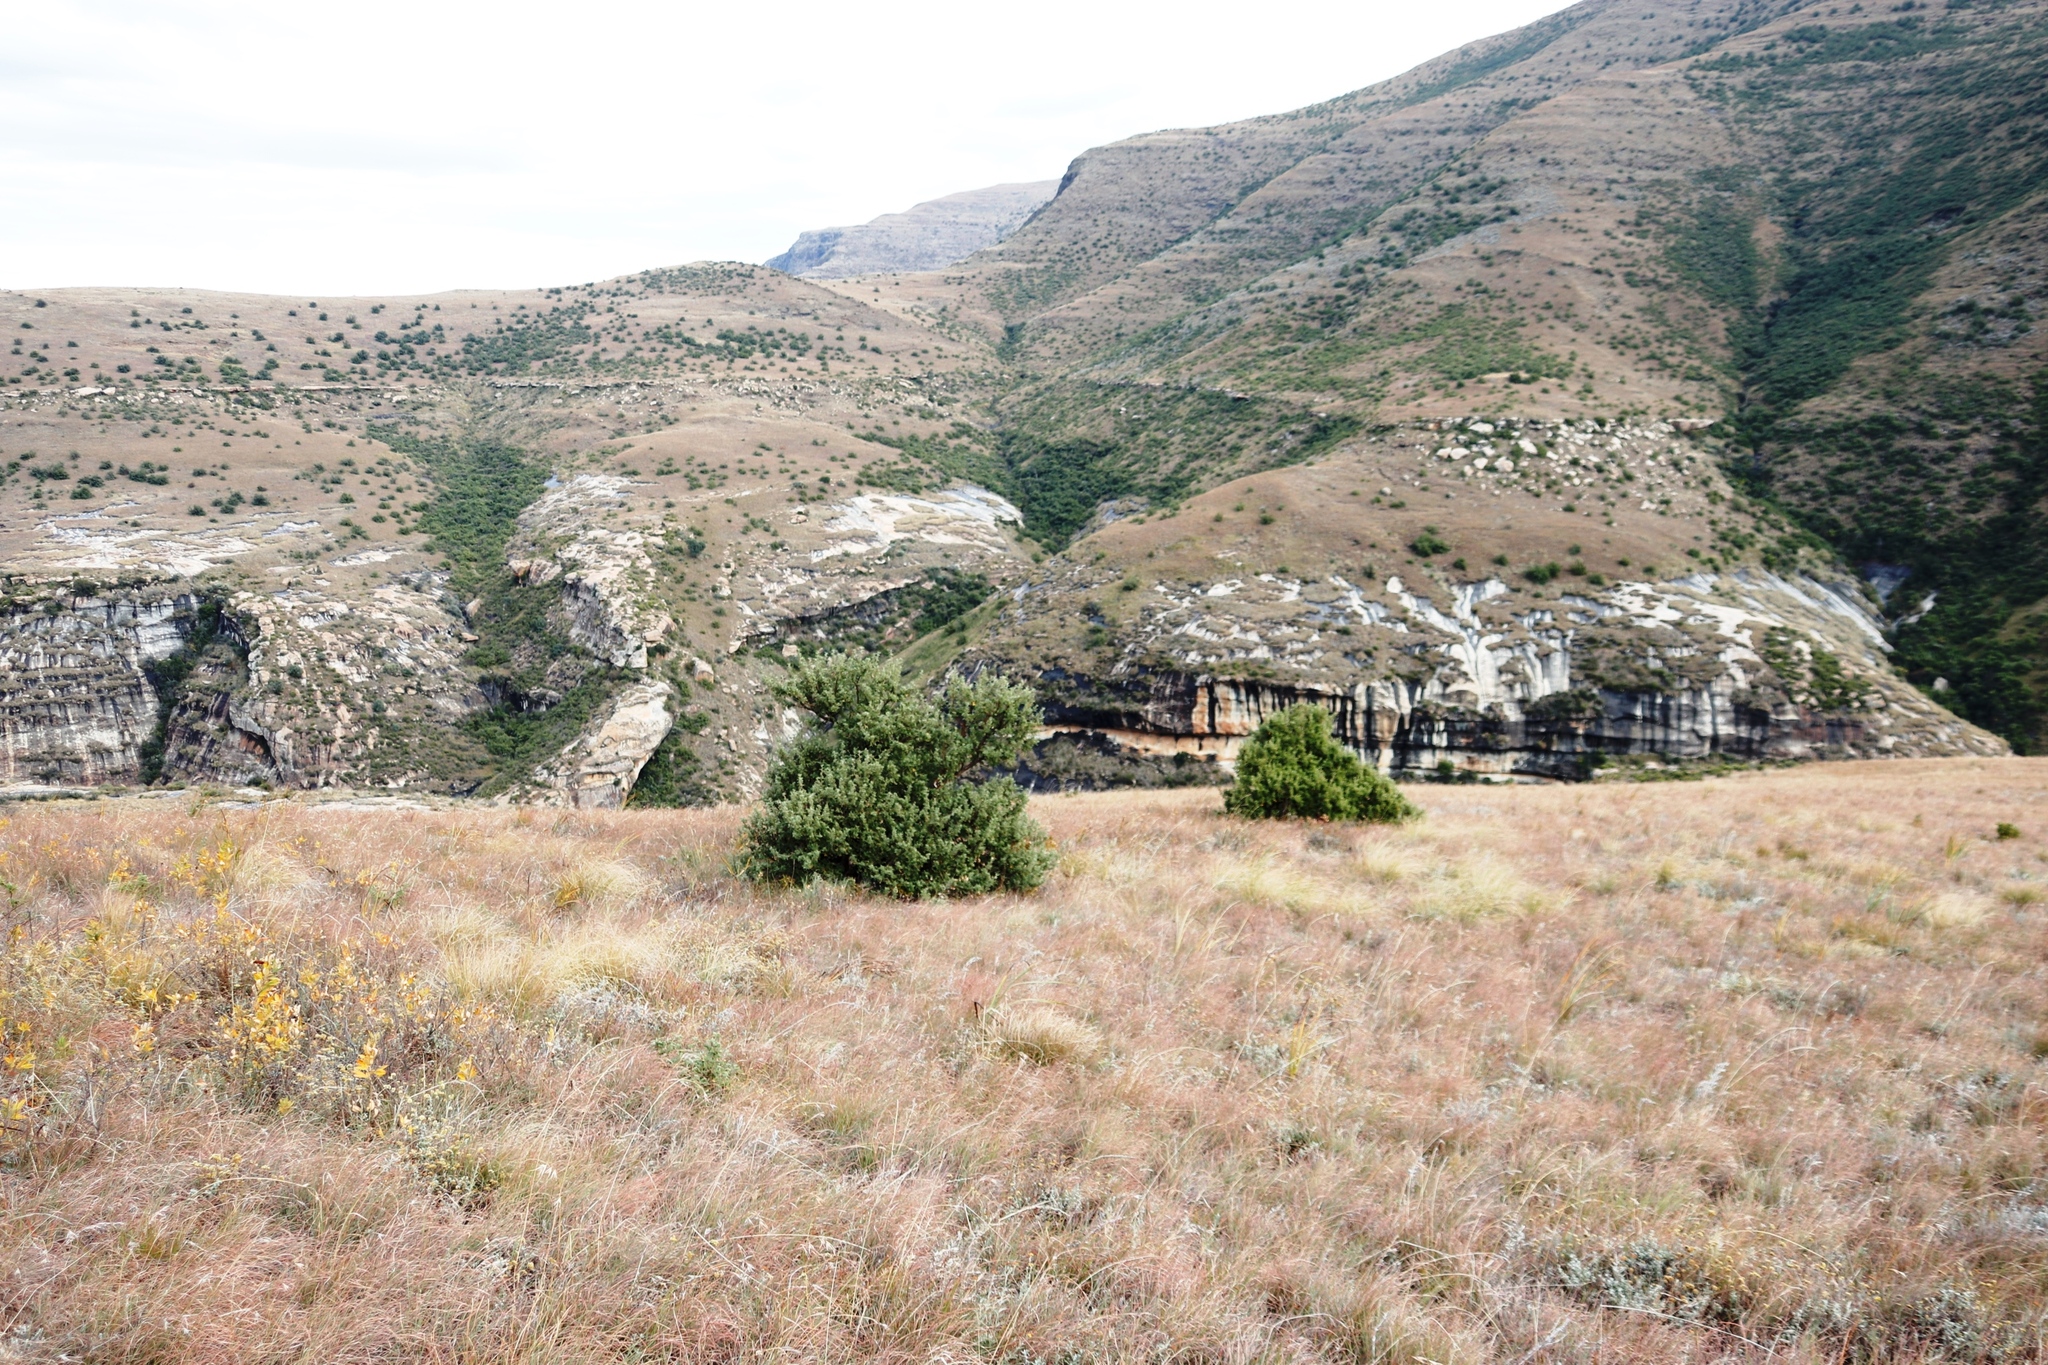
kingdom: Plantae
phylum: Tracheophyta
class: Magnoliopsida
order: Rosales
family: Rosaceae
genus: Leucosidea
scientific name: Leucosidea sericea
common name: Oldwood
